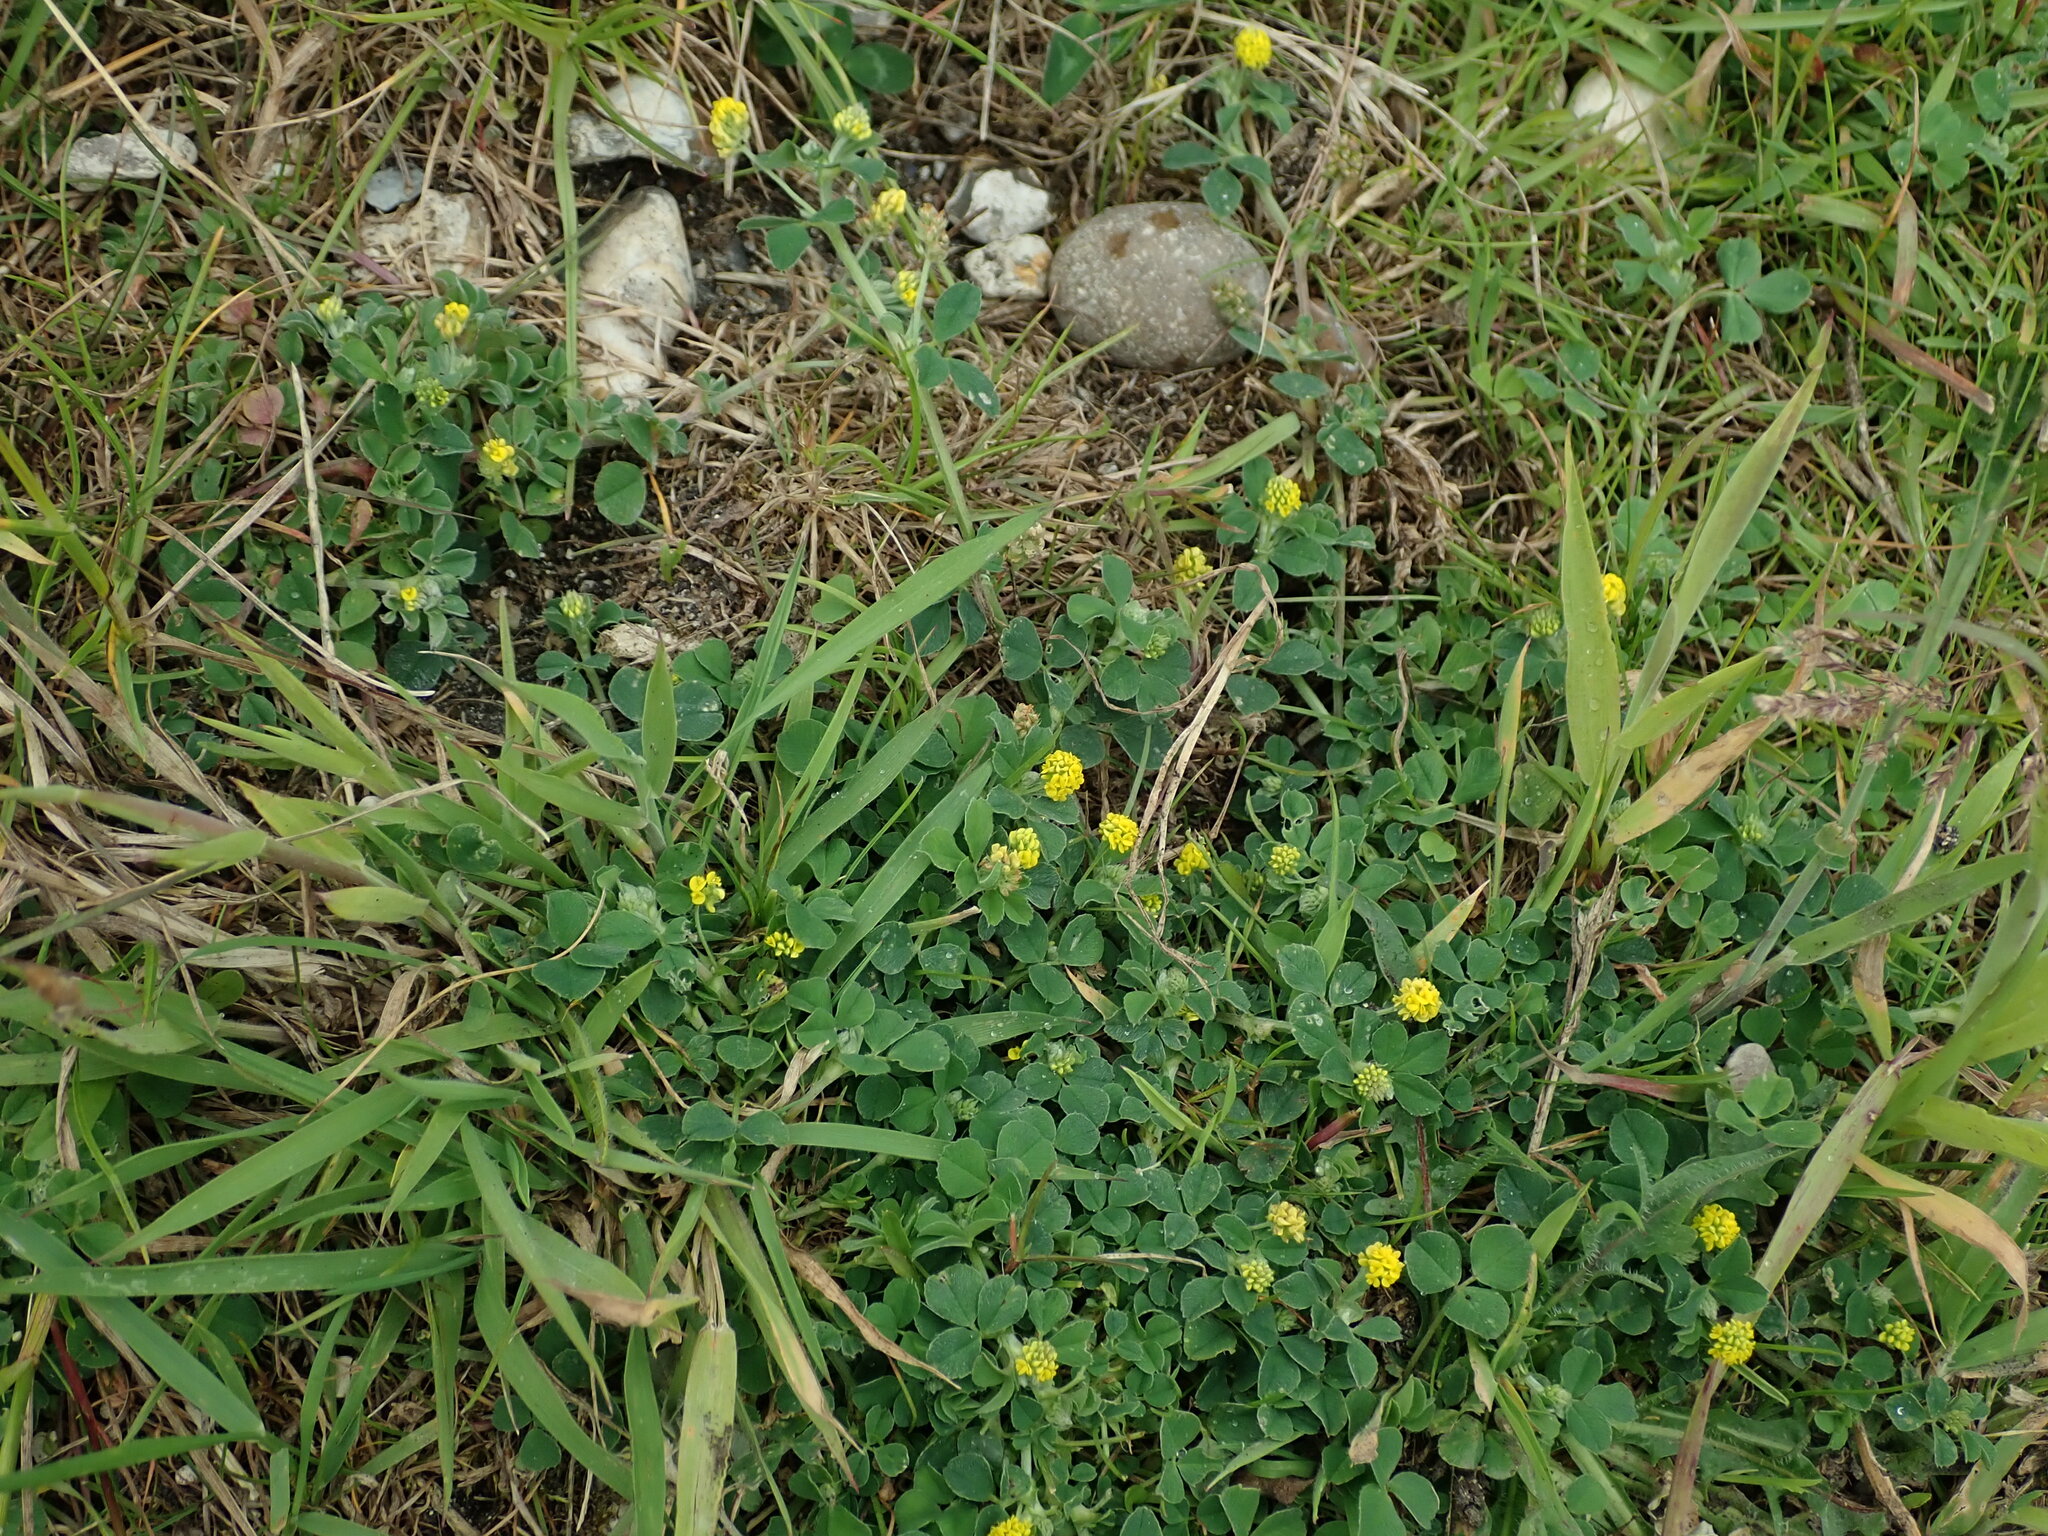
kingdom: Plantae
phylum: Tracheophyta
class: Magnoliopsida
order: Fabales
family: Fabaceae
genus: Medicago
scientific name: Medicago lupulina
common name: Black medick
